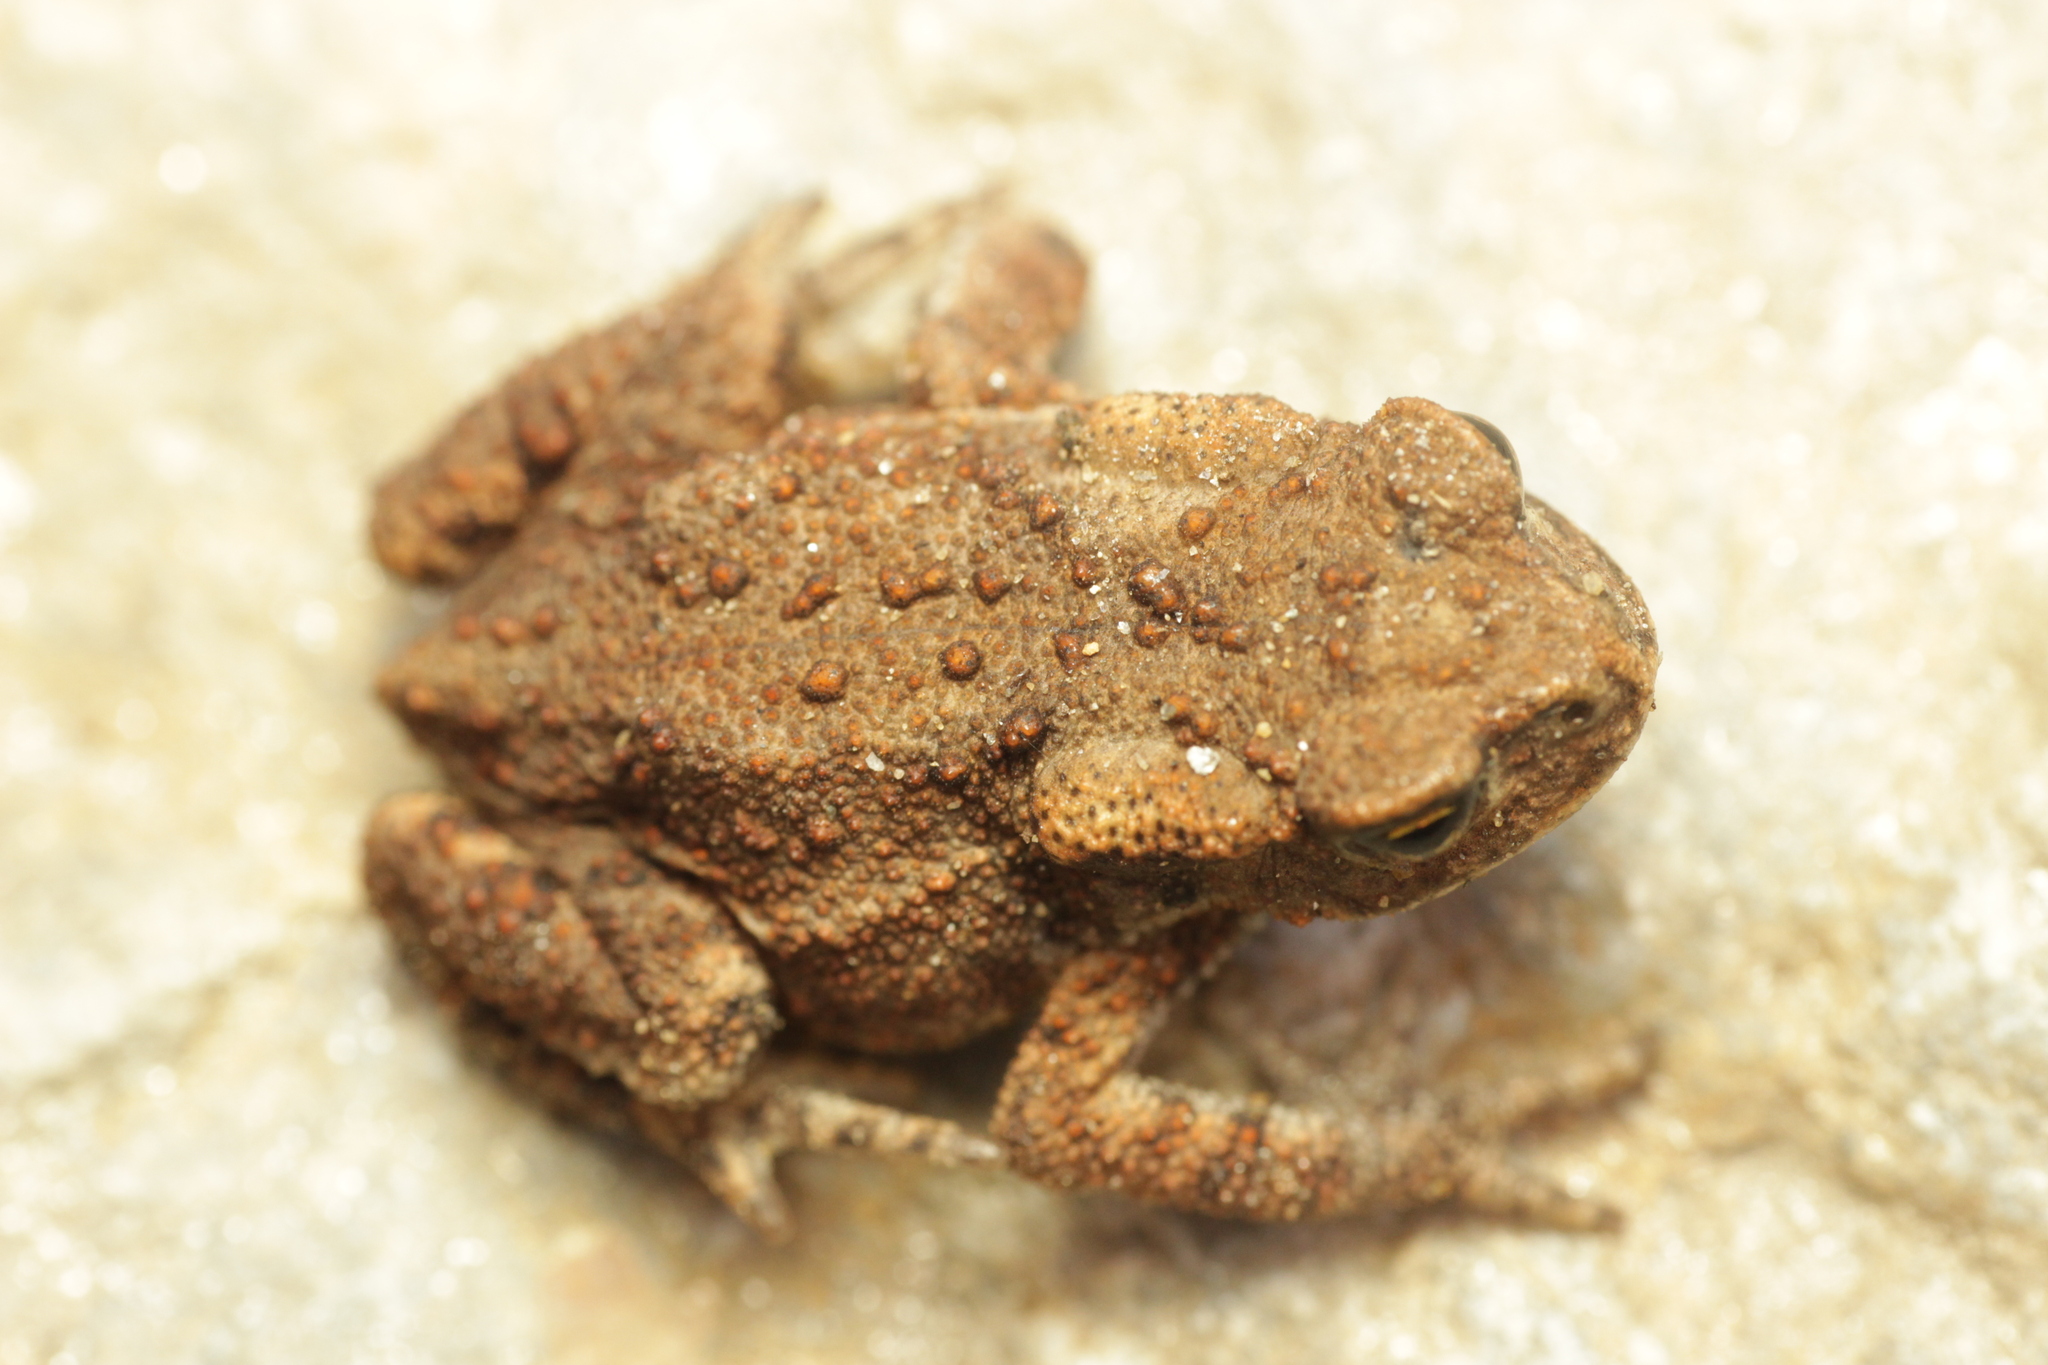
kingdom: Animalia
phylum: Chordata
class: Amphibia
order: Anura
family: Bufonidae
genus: Bufo
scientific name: Bufo bufo
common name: Common toad
